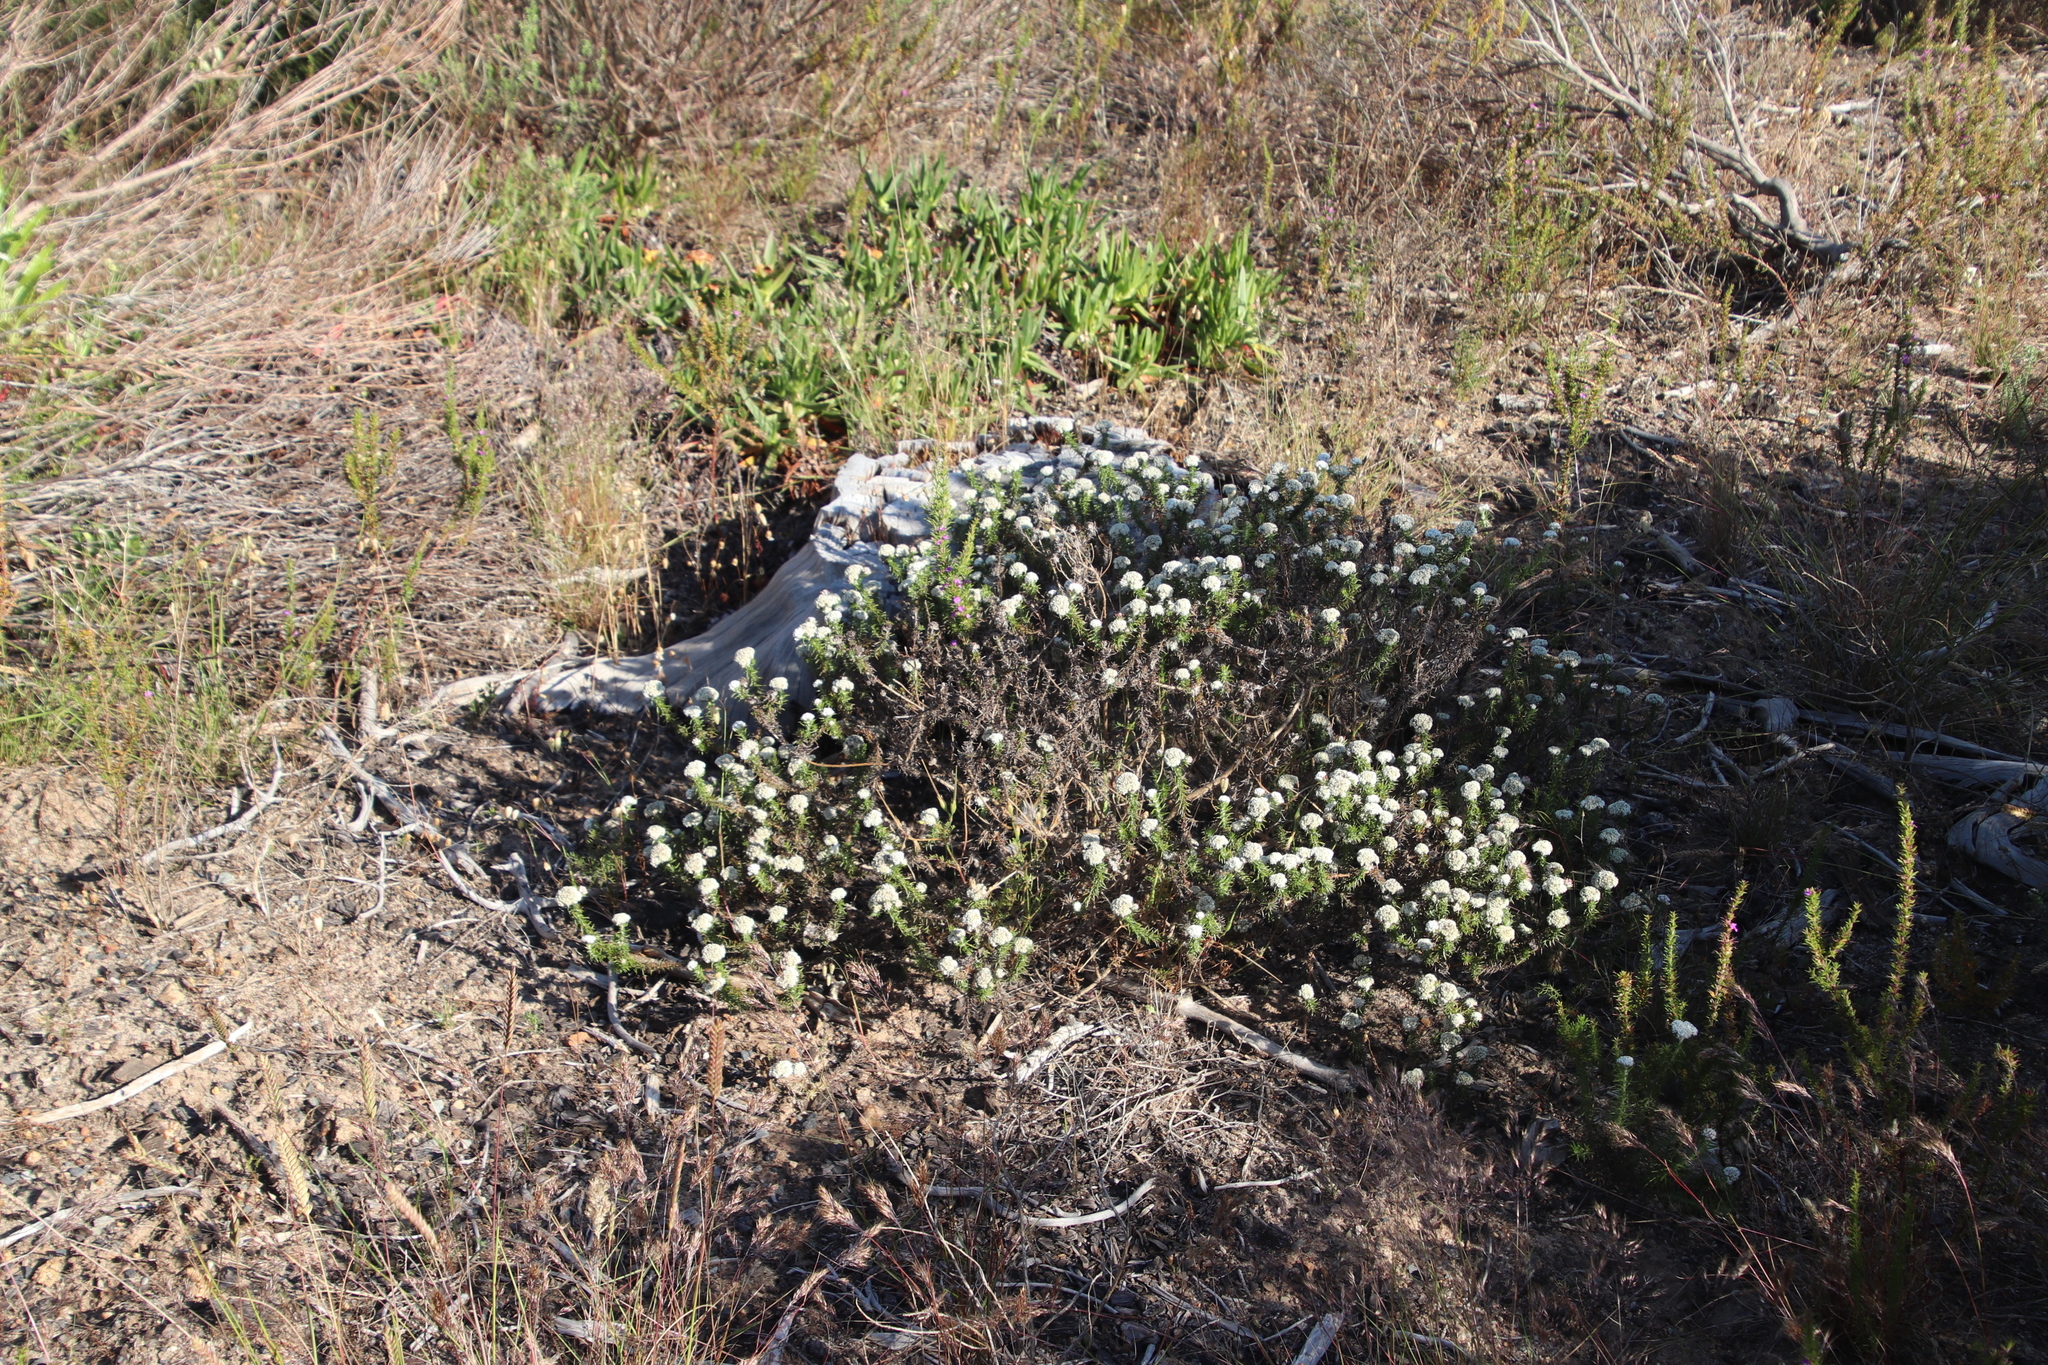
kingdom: Plantae
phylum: Tracheophyta
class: Magnoliopsida
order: Asterales
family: Asteraceae
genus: Metalasia
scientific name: Metalasia pulchella
